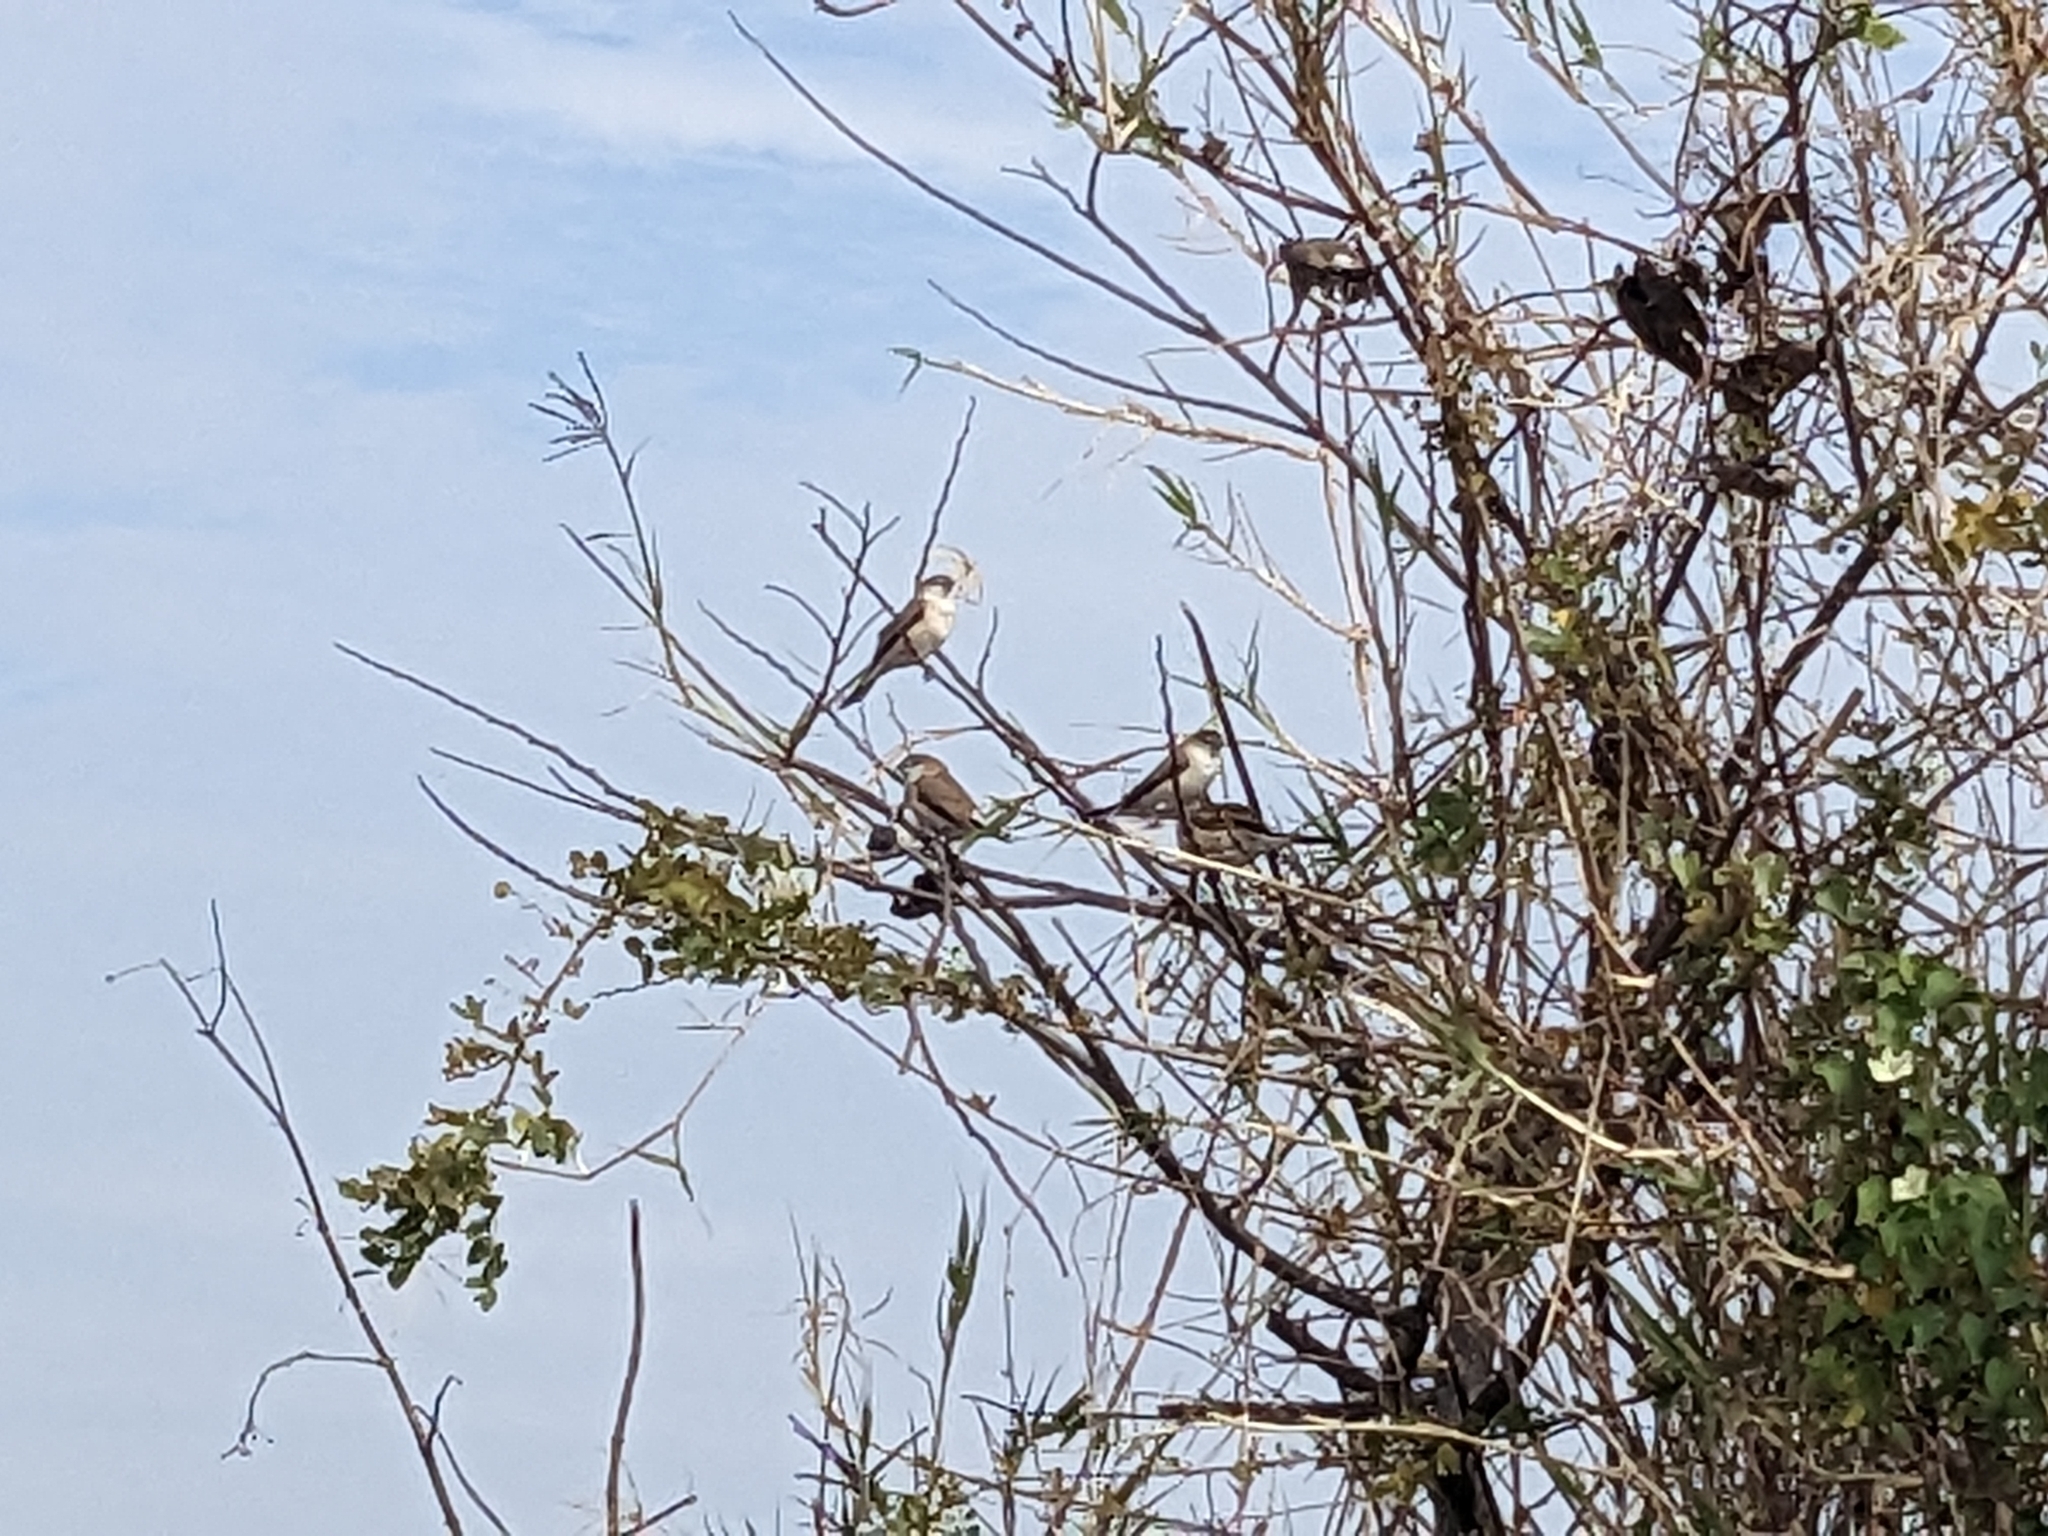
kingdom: Animalia
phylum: Chordata
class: Aves
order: Passeriformes
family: Estrildidae
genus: Euodice
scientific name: Euodice malabarica
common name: Indian silverbill
